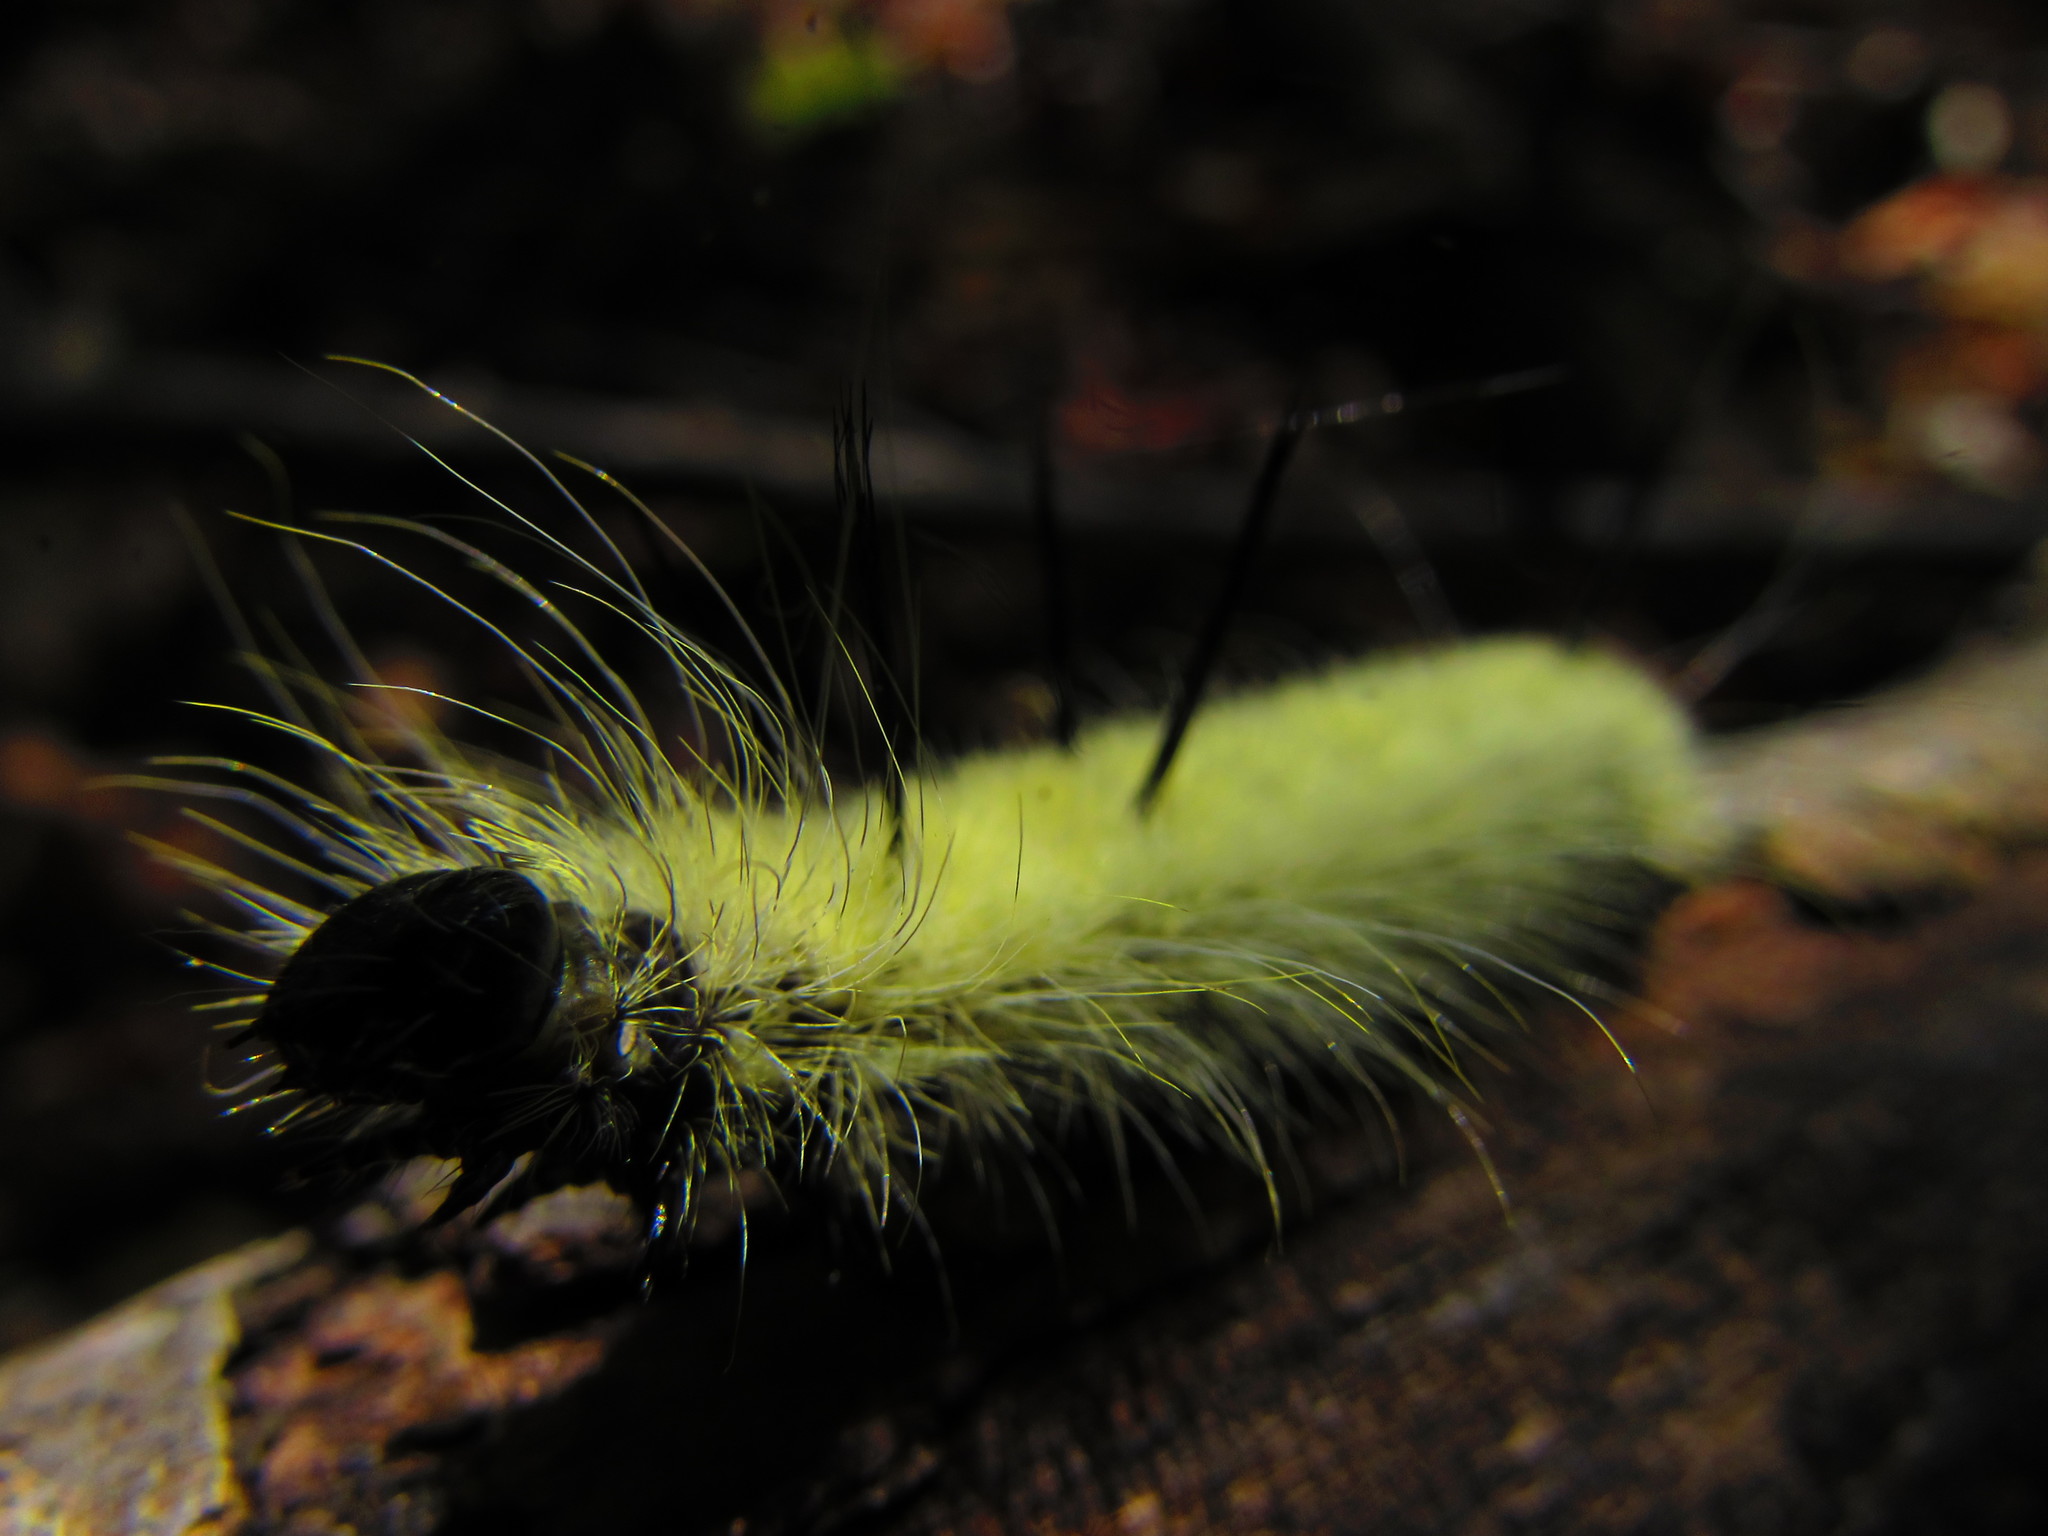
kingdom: Animalia
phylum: Arthropoda
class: Insecta
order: Lepidoptera
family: Noctuidae
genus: Acronicta
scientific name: Acronicta americana
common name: American dagger
